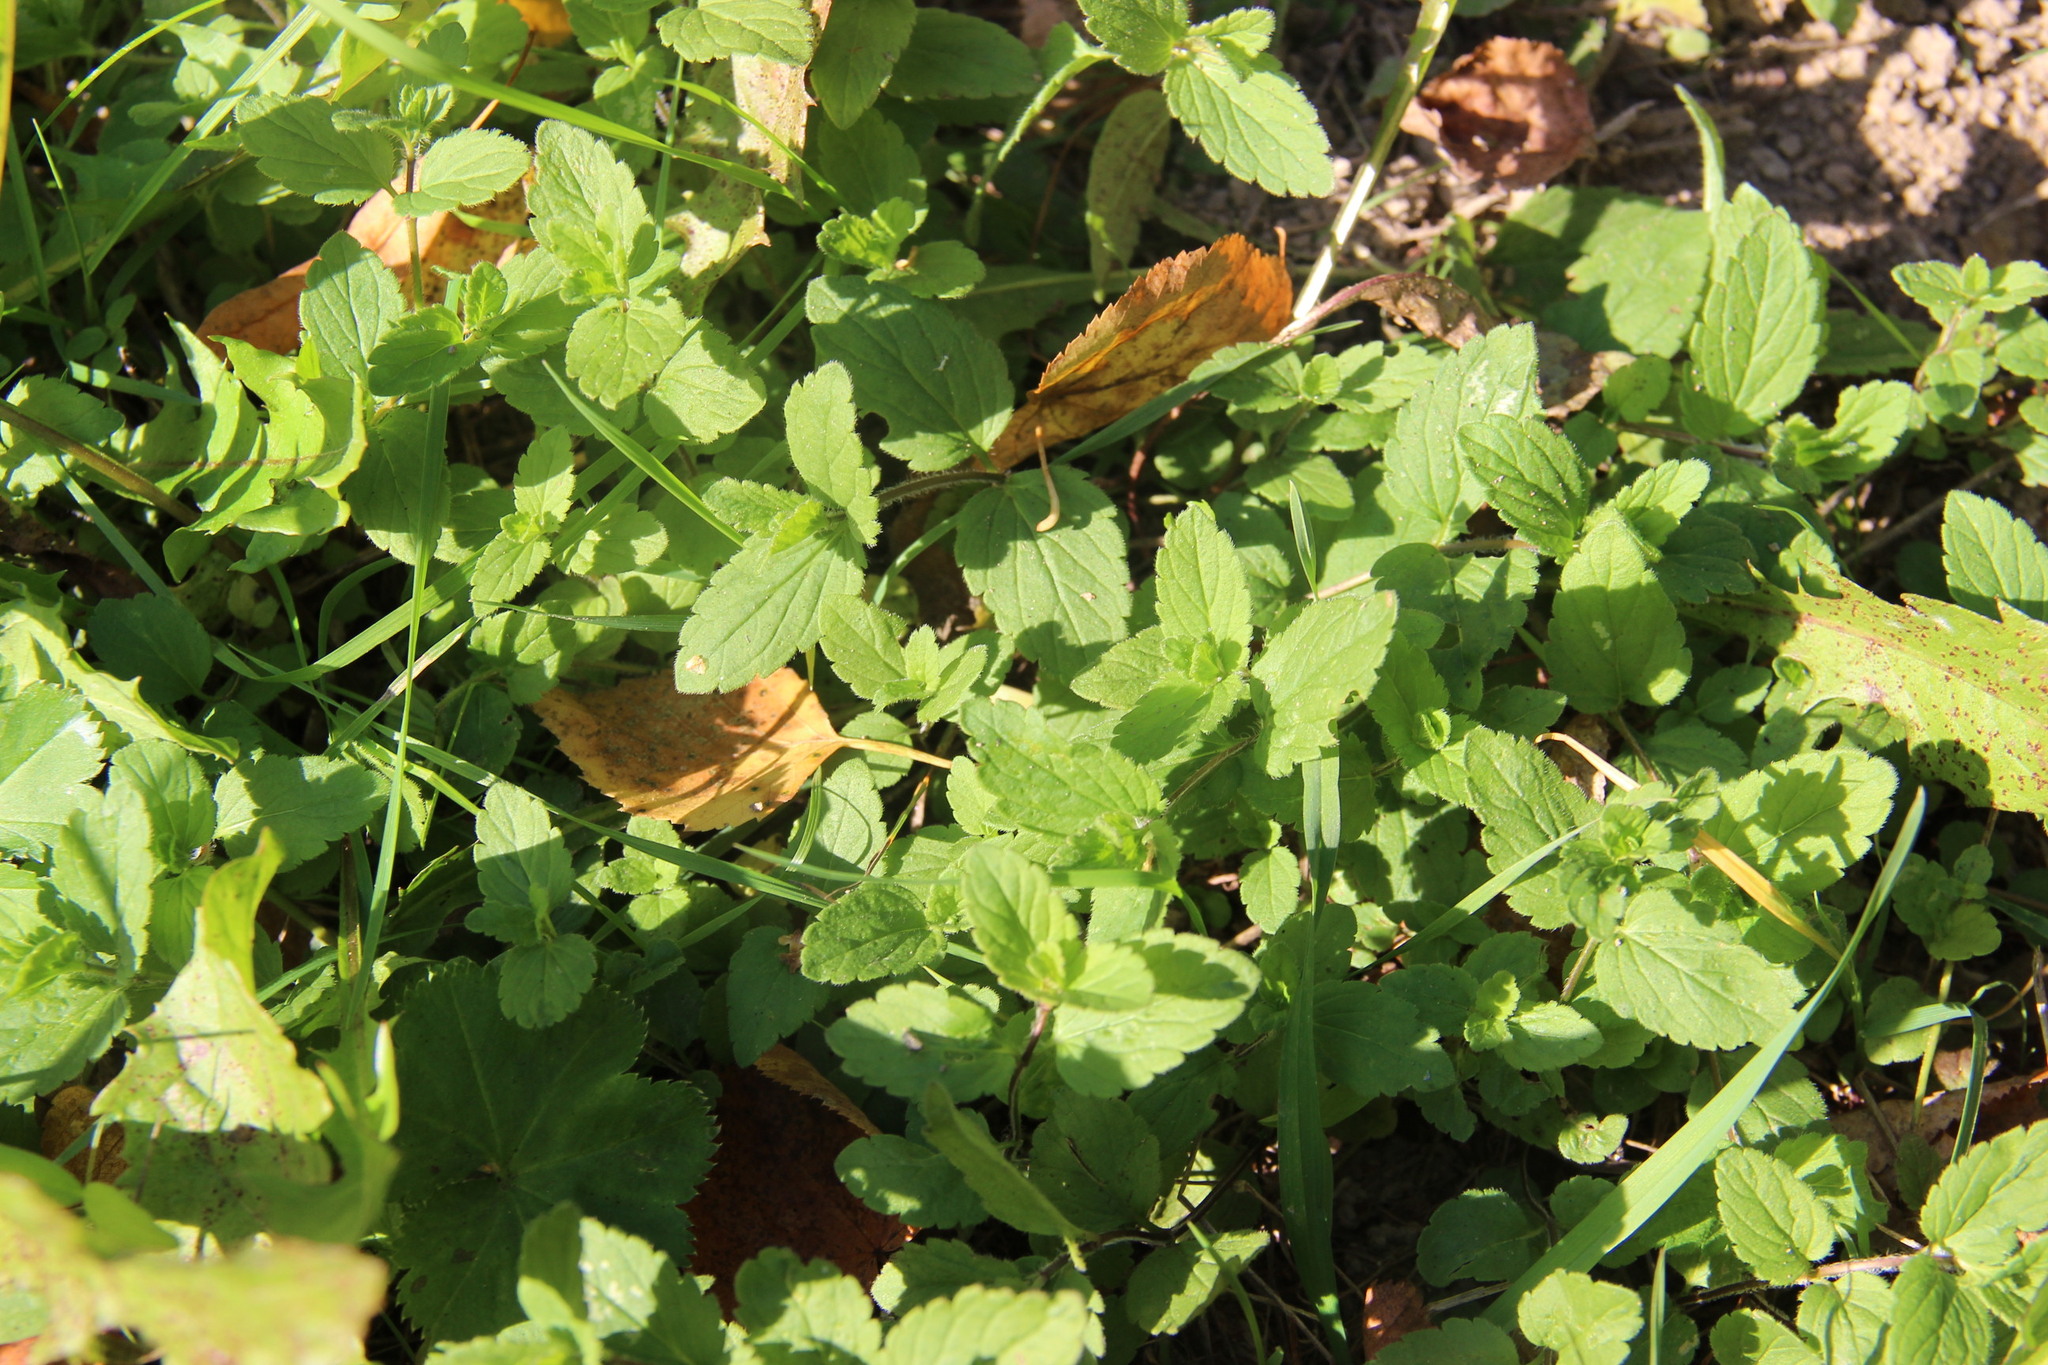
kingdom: Plantae
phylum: Tracheophyta
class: Magnoliopsida
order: Lamiales
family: Plantaginaceae
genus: Veronica
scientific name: Veronica chamaedrys
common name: Germander speedwell
